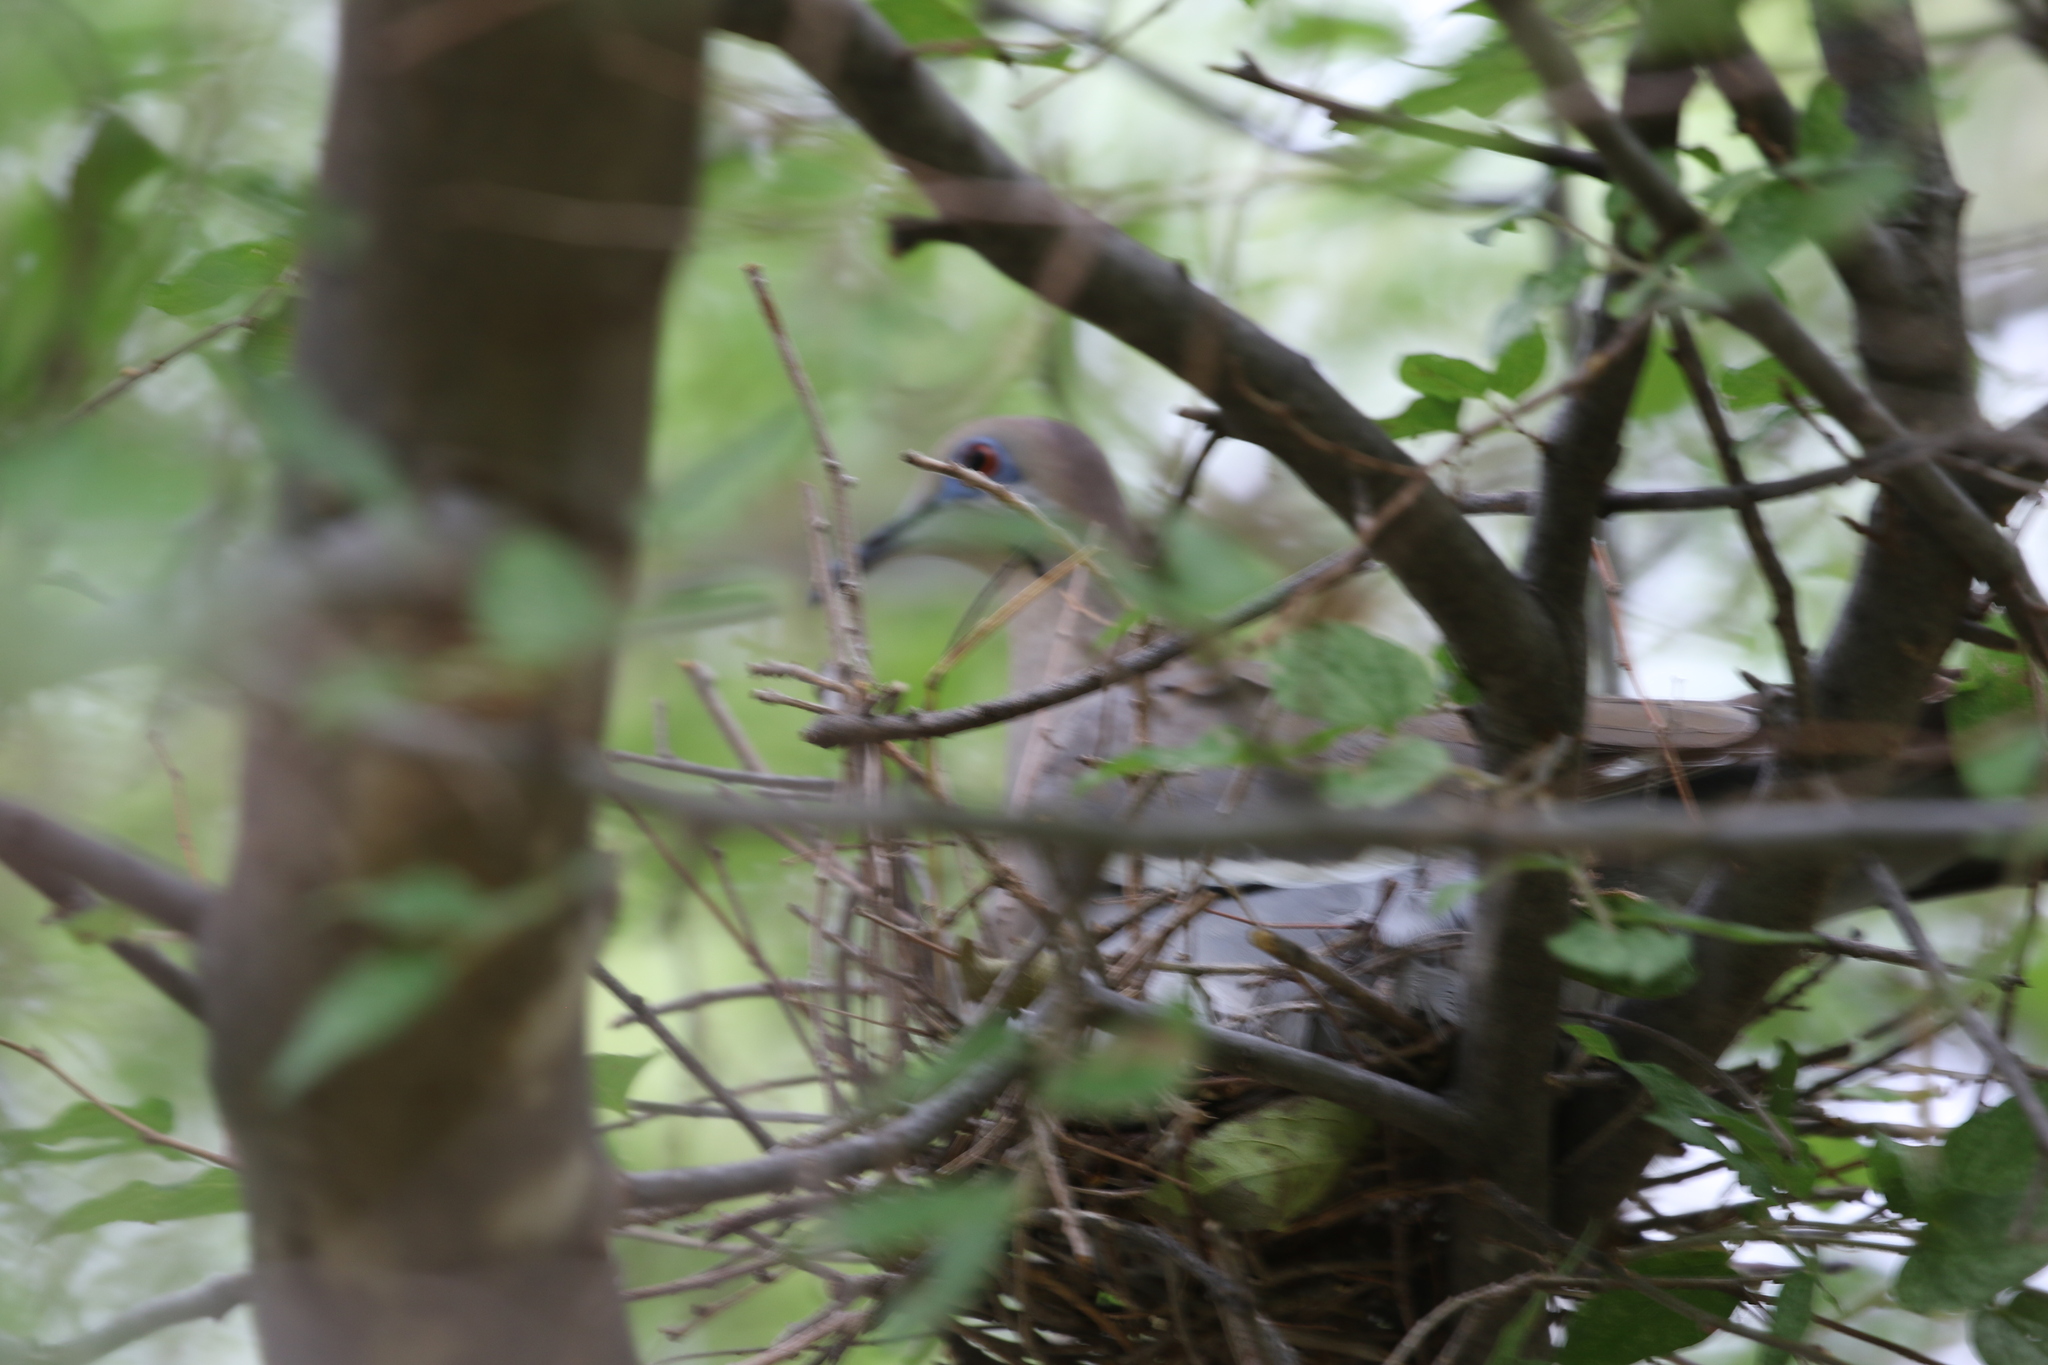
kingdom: Animalia
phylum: Chordata
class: Aves
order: Columbiformes
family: Columbidae
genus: Zenaida
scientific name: Zenaida asiatica
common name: White-winged dove
